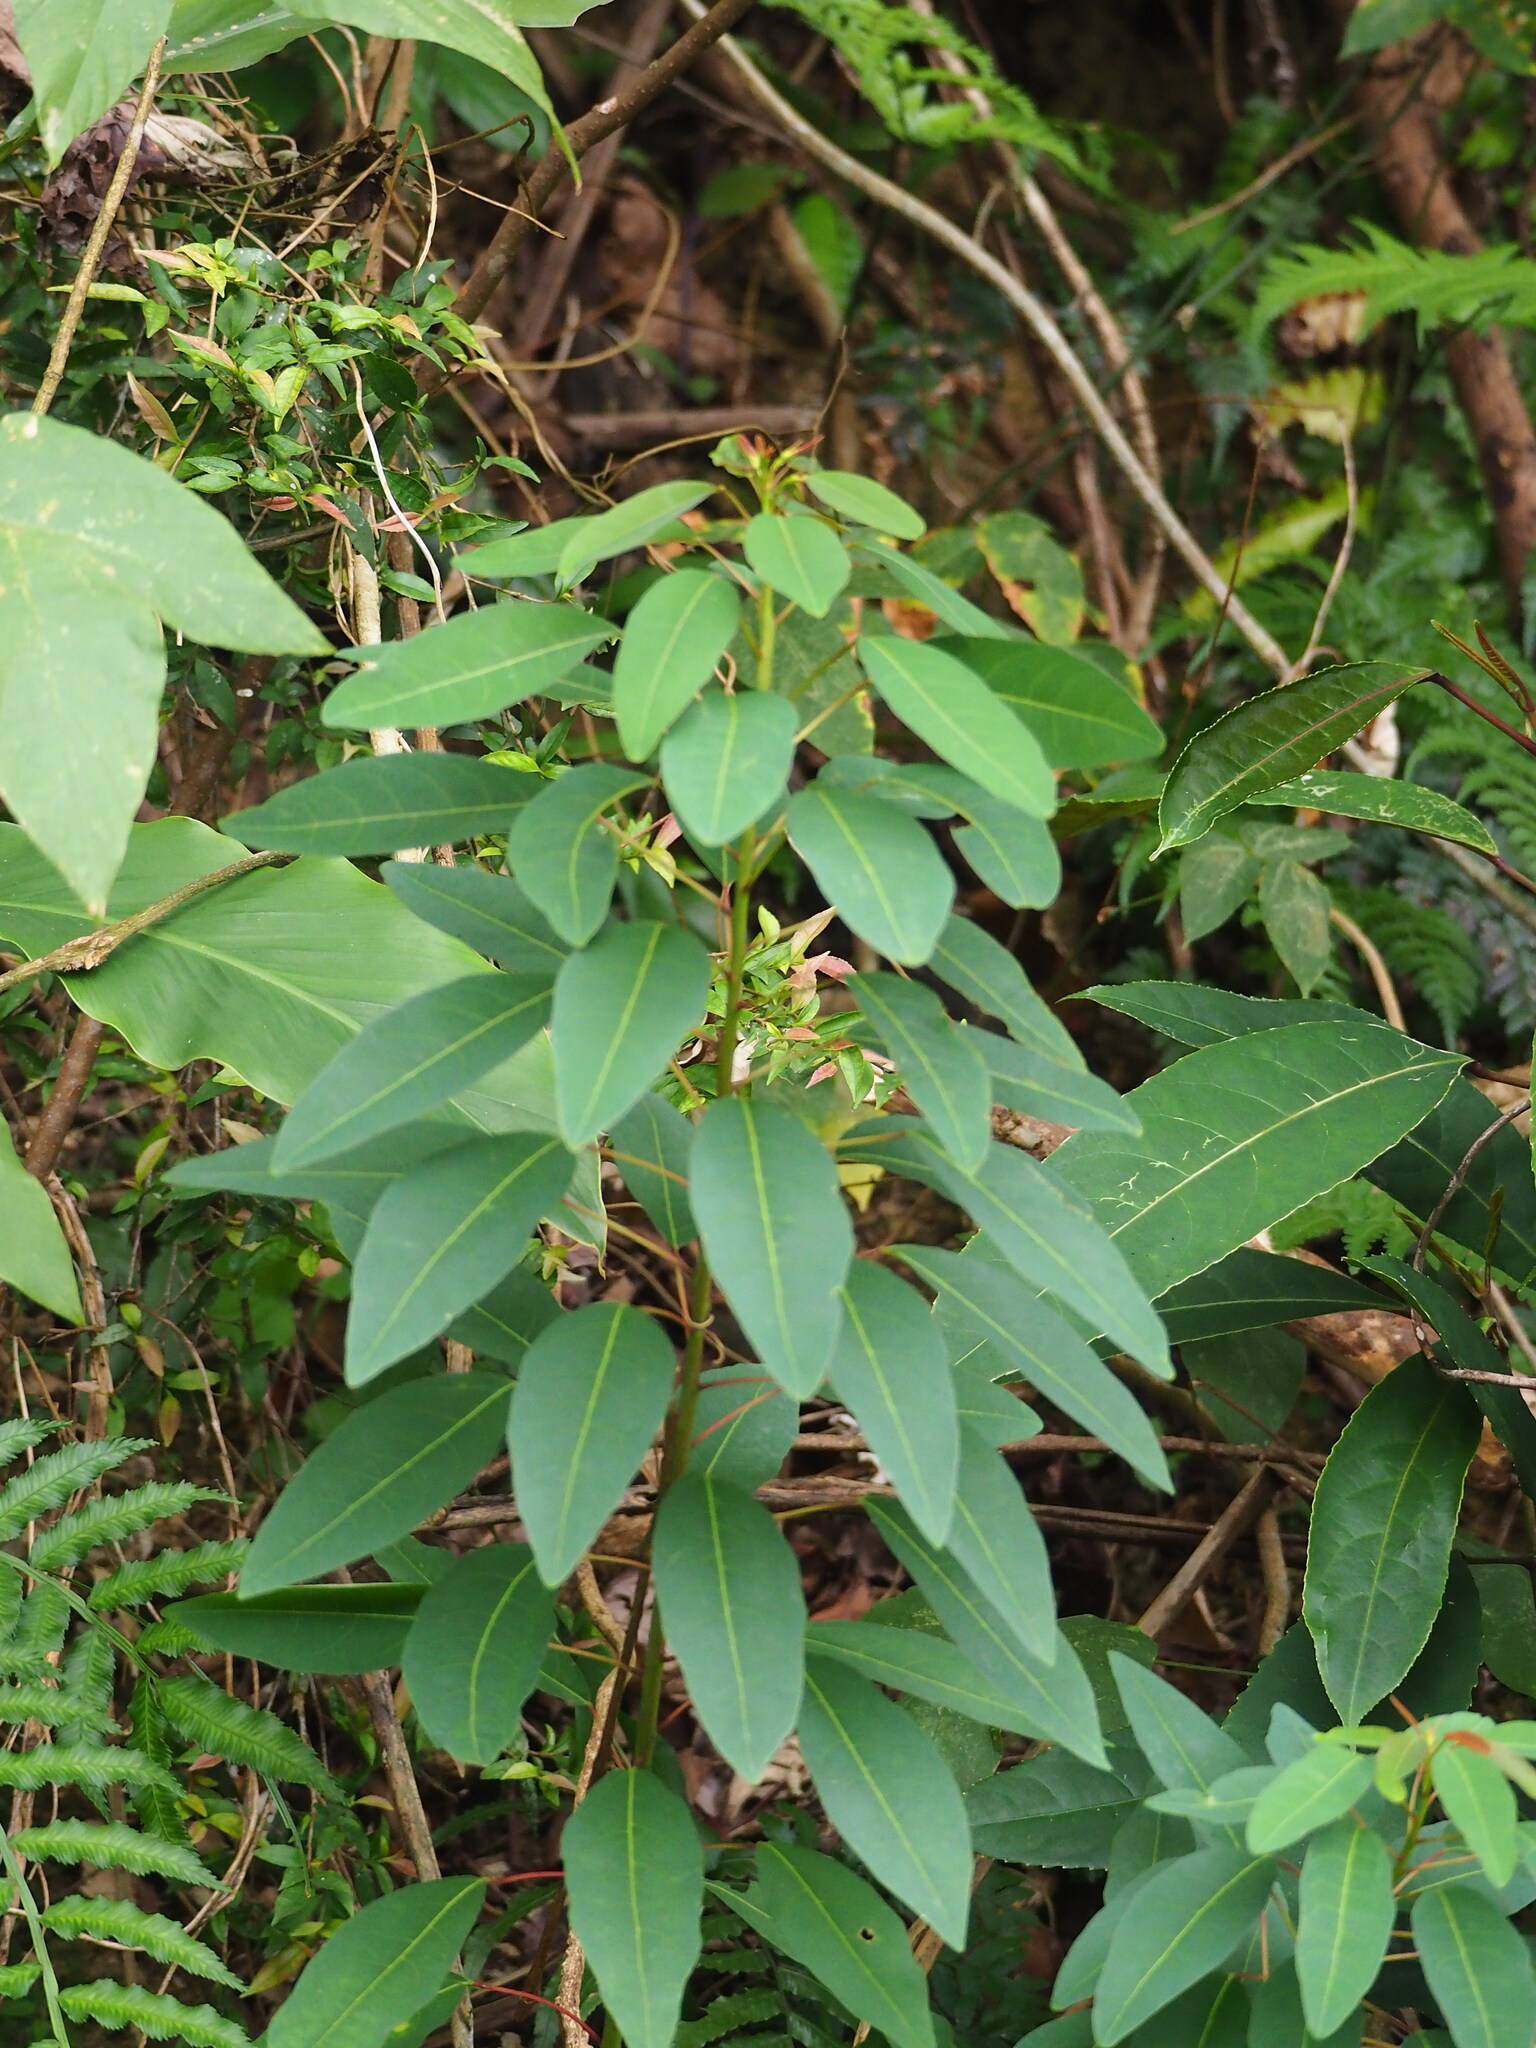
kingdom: Plantae
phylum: Tracheophyta
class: Magnoliopsida
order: Malpighiales
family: Euphorbiaceae
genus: Triadica
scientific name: Triadica cochinchinensis
